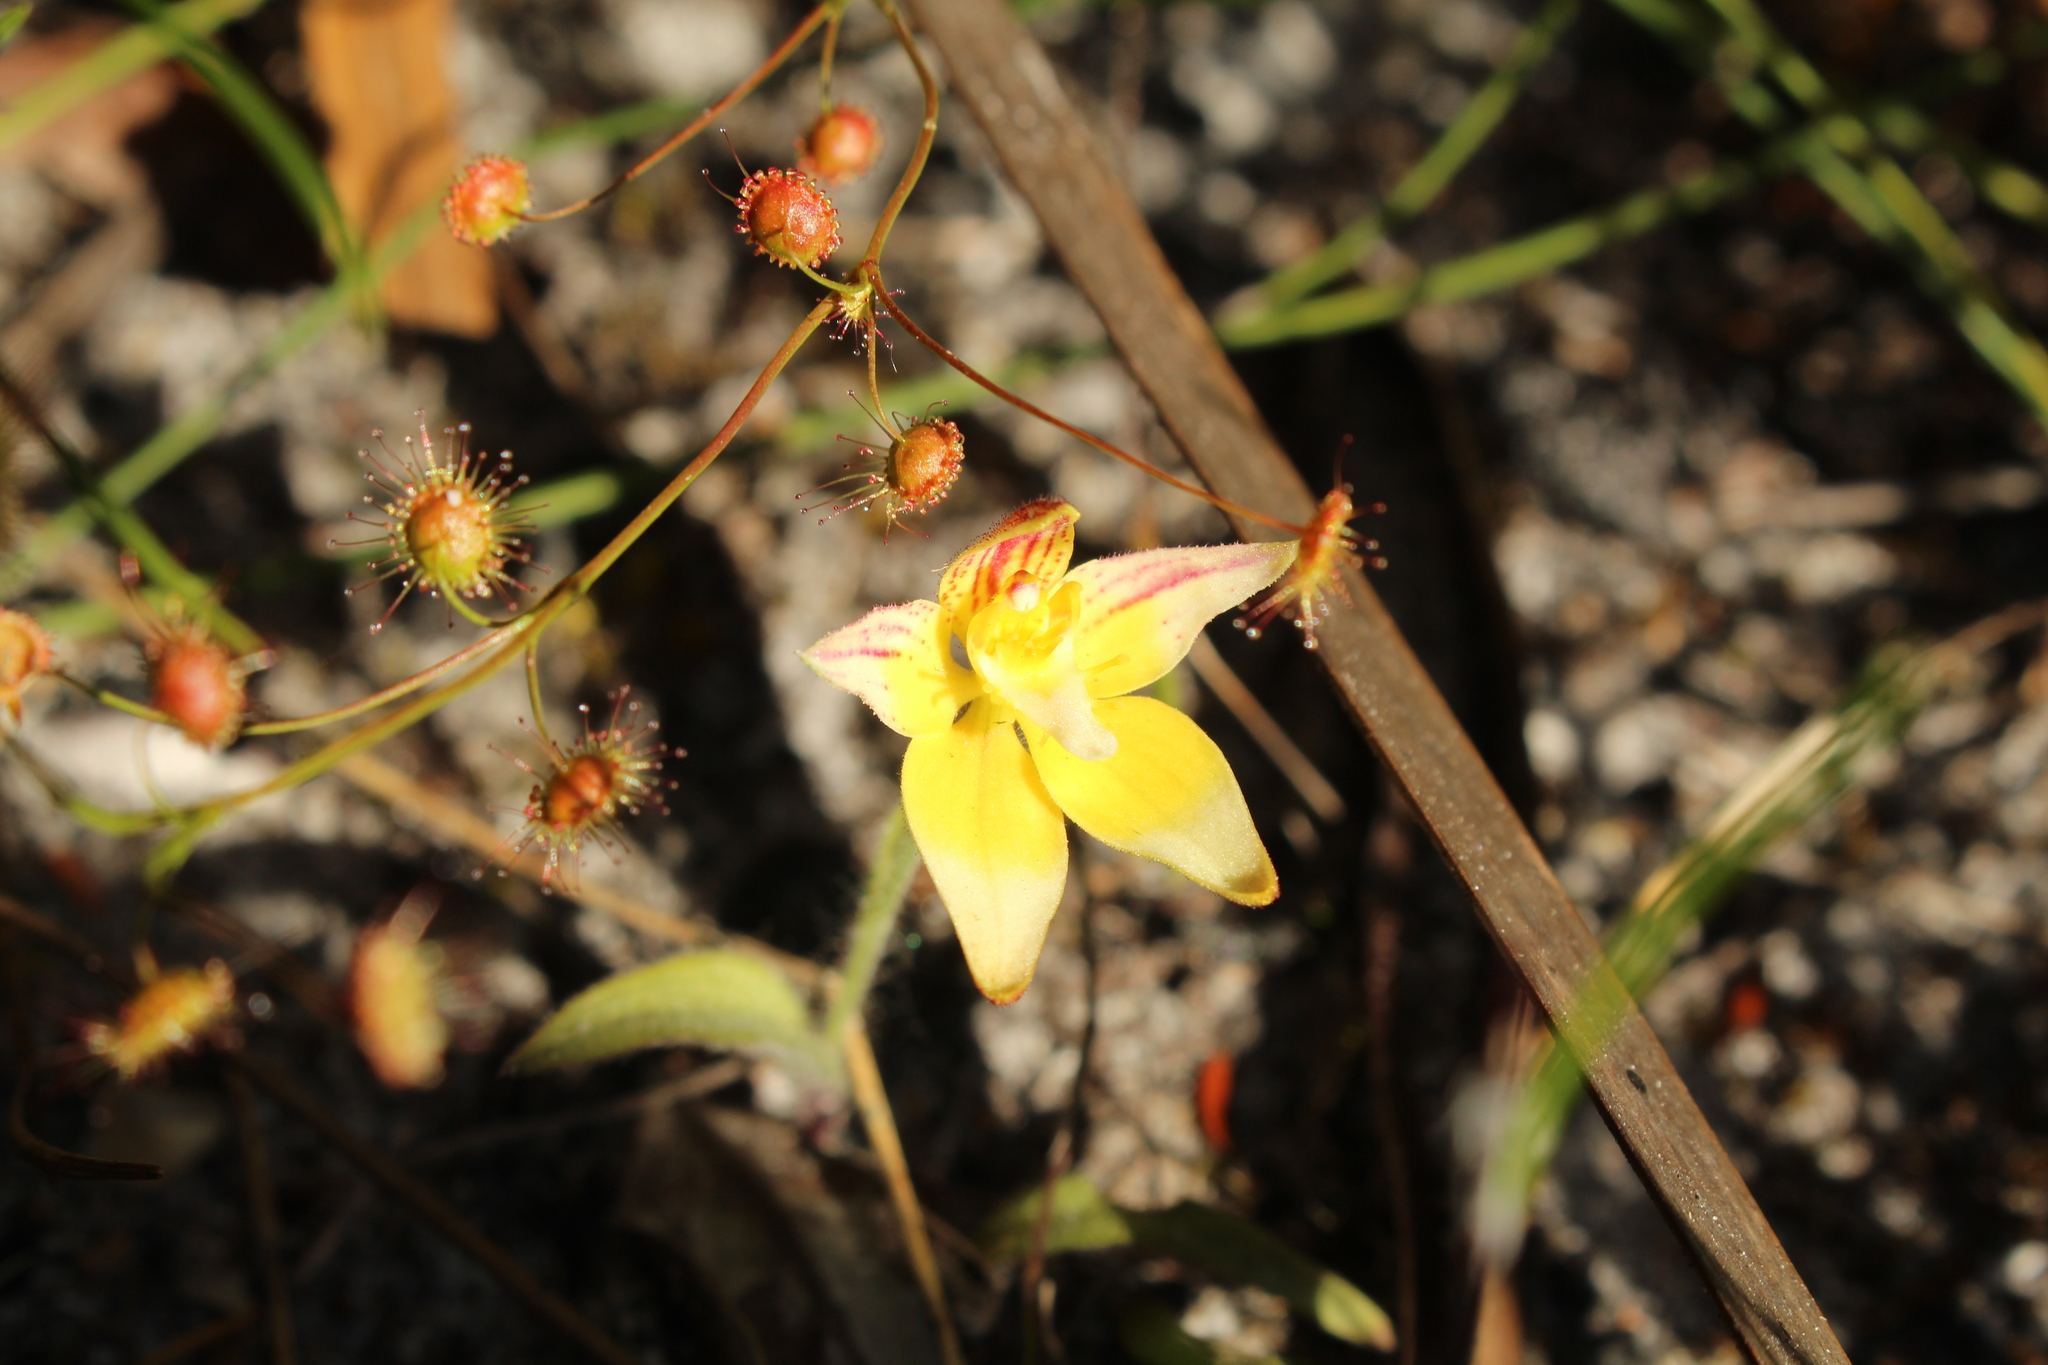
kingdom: Plantae
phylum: Tracheophyta
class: Liliopsida
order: Asparagales
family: Orchidaceae
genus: Caladenia
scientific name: Caladenia flava
